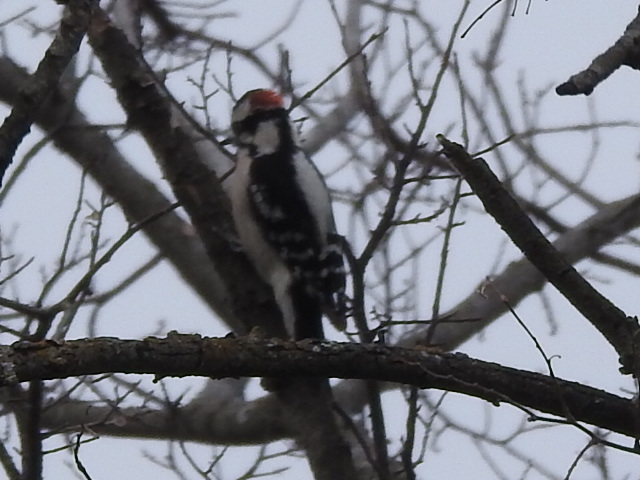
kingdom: Animalia
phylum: Chordata
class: Aves
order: Piciformes
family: Picidae
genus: Dryobates
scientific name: Dryobates pubescens
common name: Downy woodpecker
